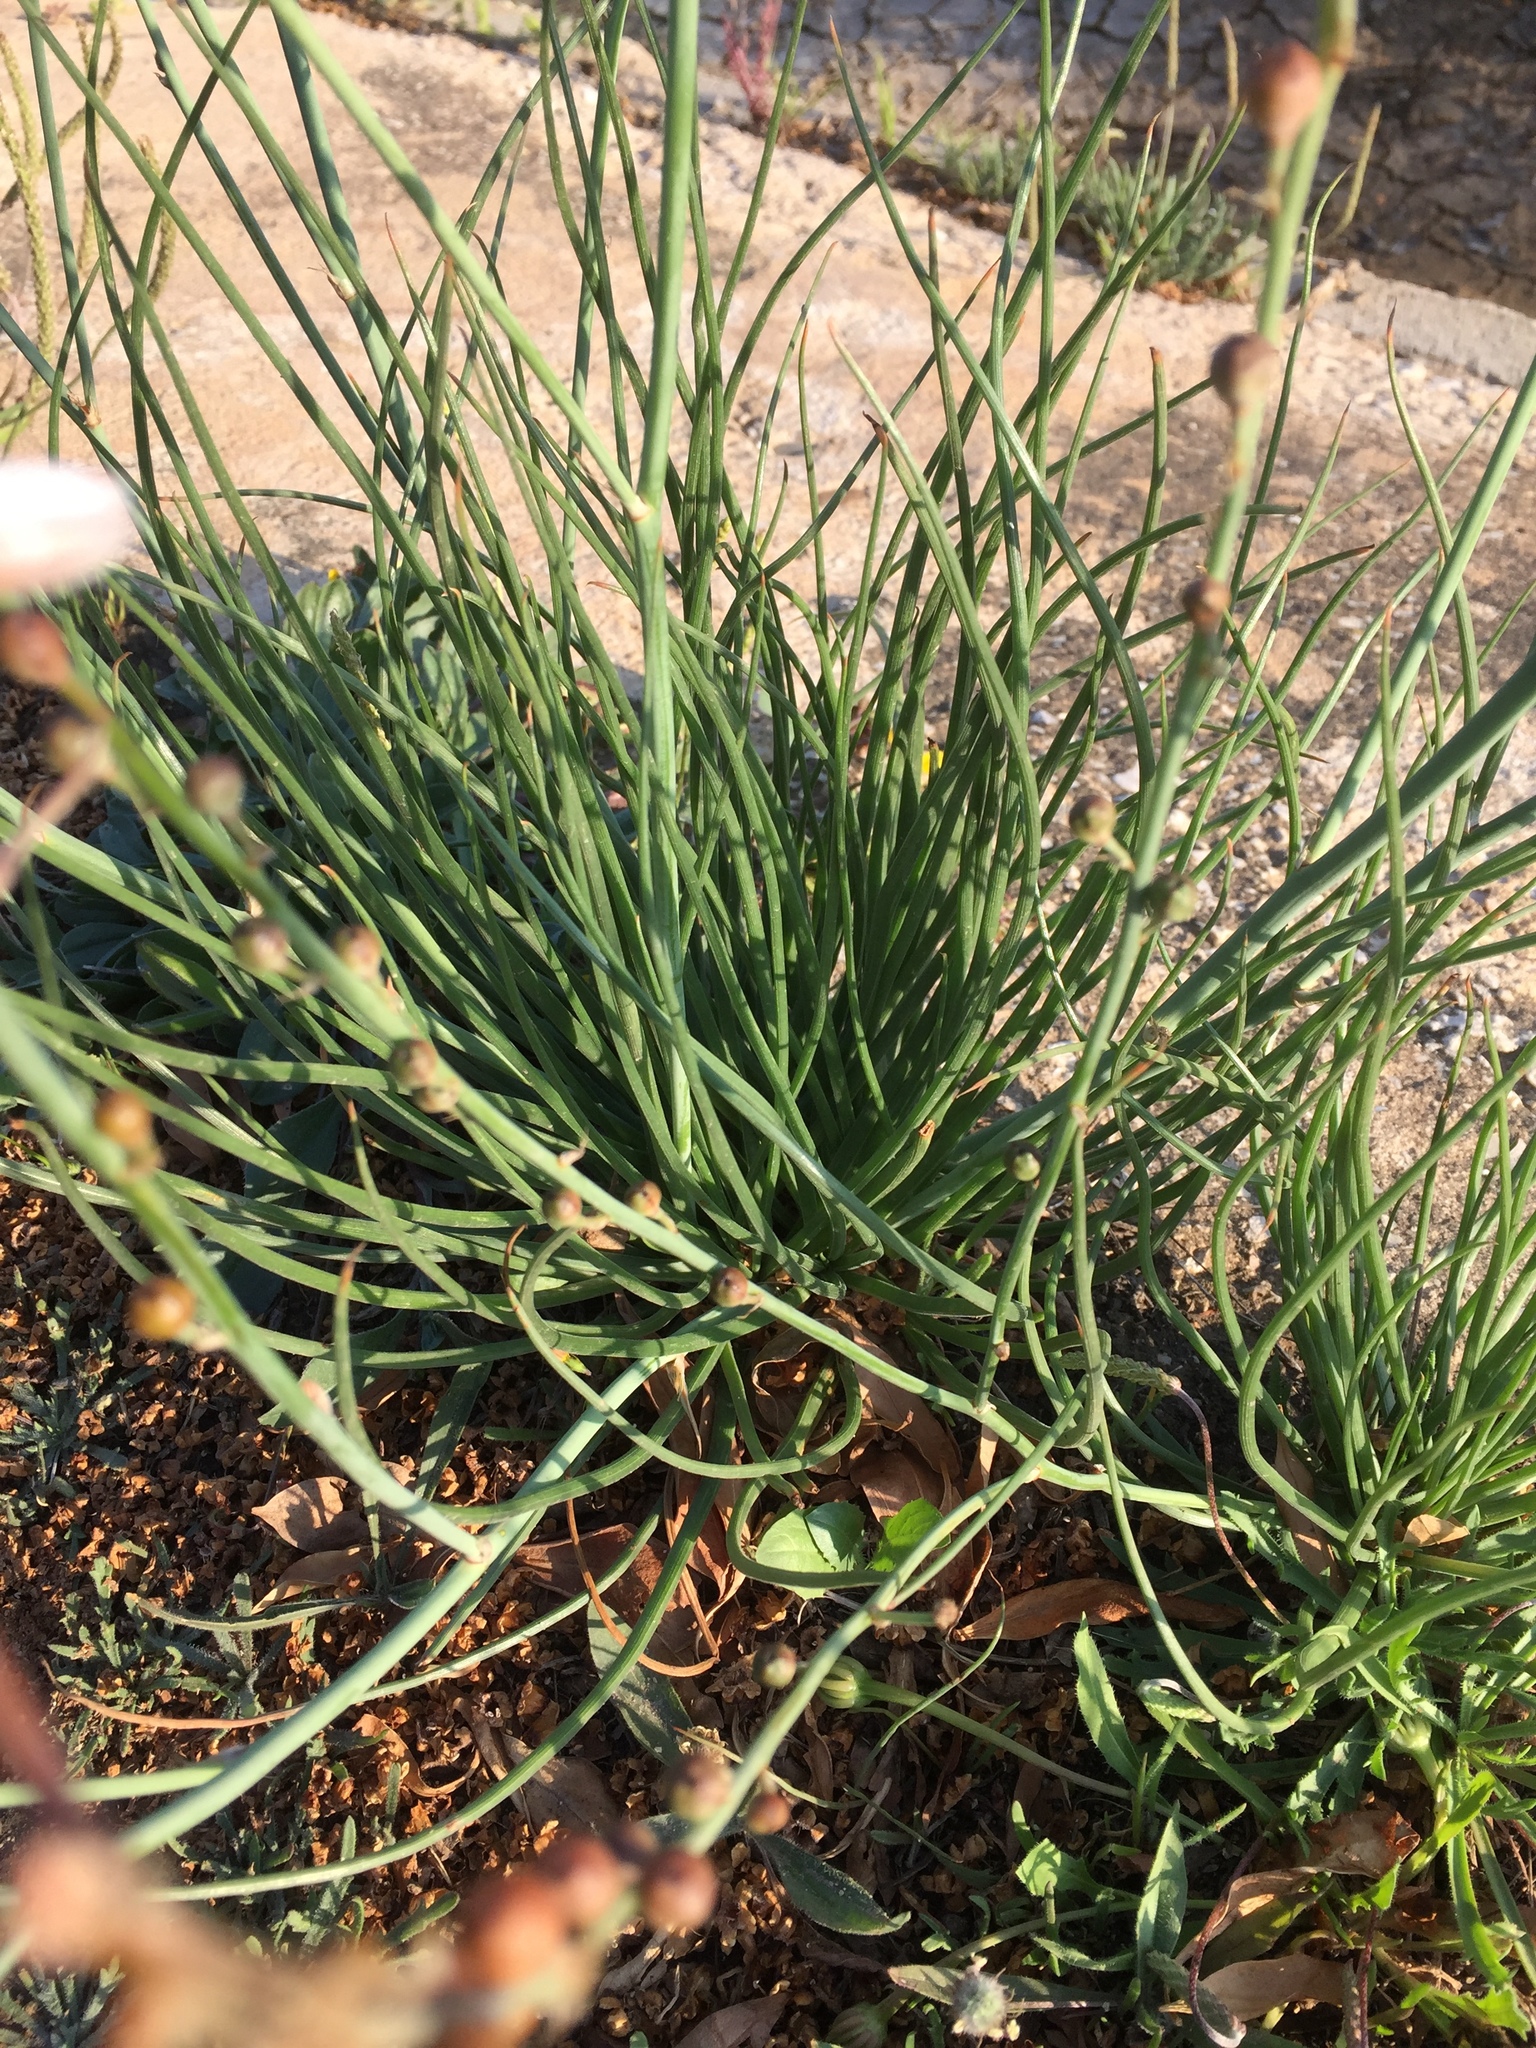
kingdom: Plantae
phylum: Tracheophyta
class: Liliopsida
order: Asparagales
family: Asphodelaceae
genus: Asphodelus
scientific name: Asphodelus fistulosus
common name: Onionweed
